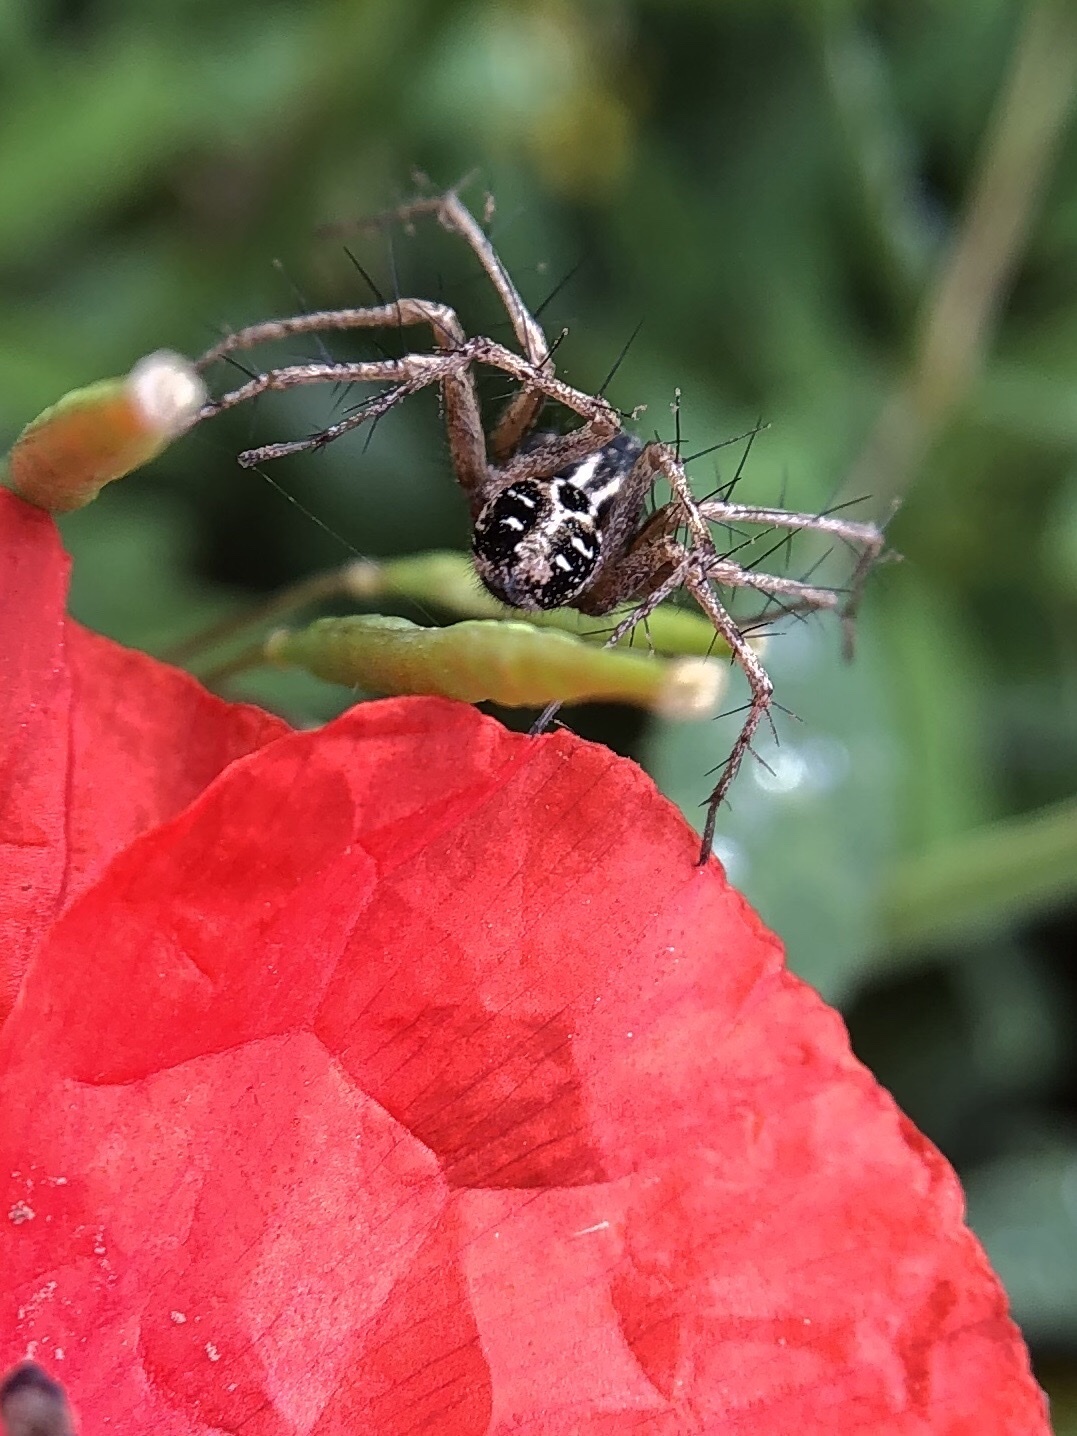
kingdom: Animalia
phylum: Arthropoda
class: Arachnida
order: Araneae
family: Oxyopidae
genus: Oxyopes
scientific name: Oxyopes heterophthalmus
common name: Lynx spider
